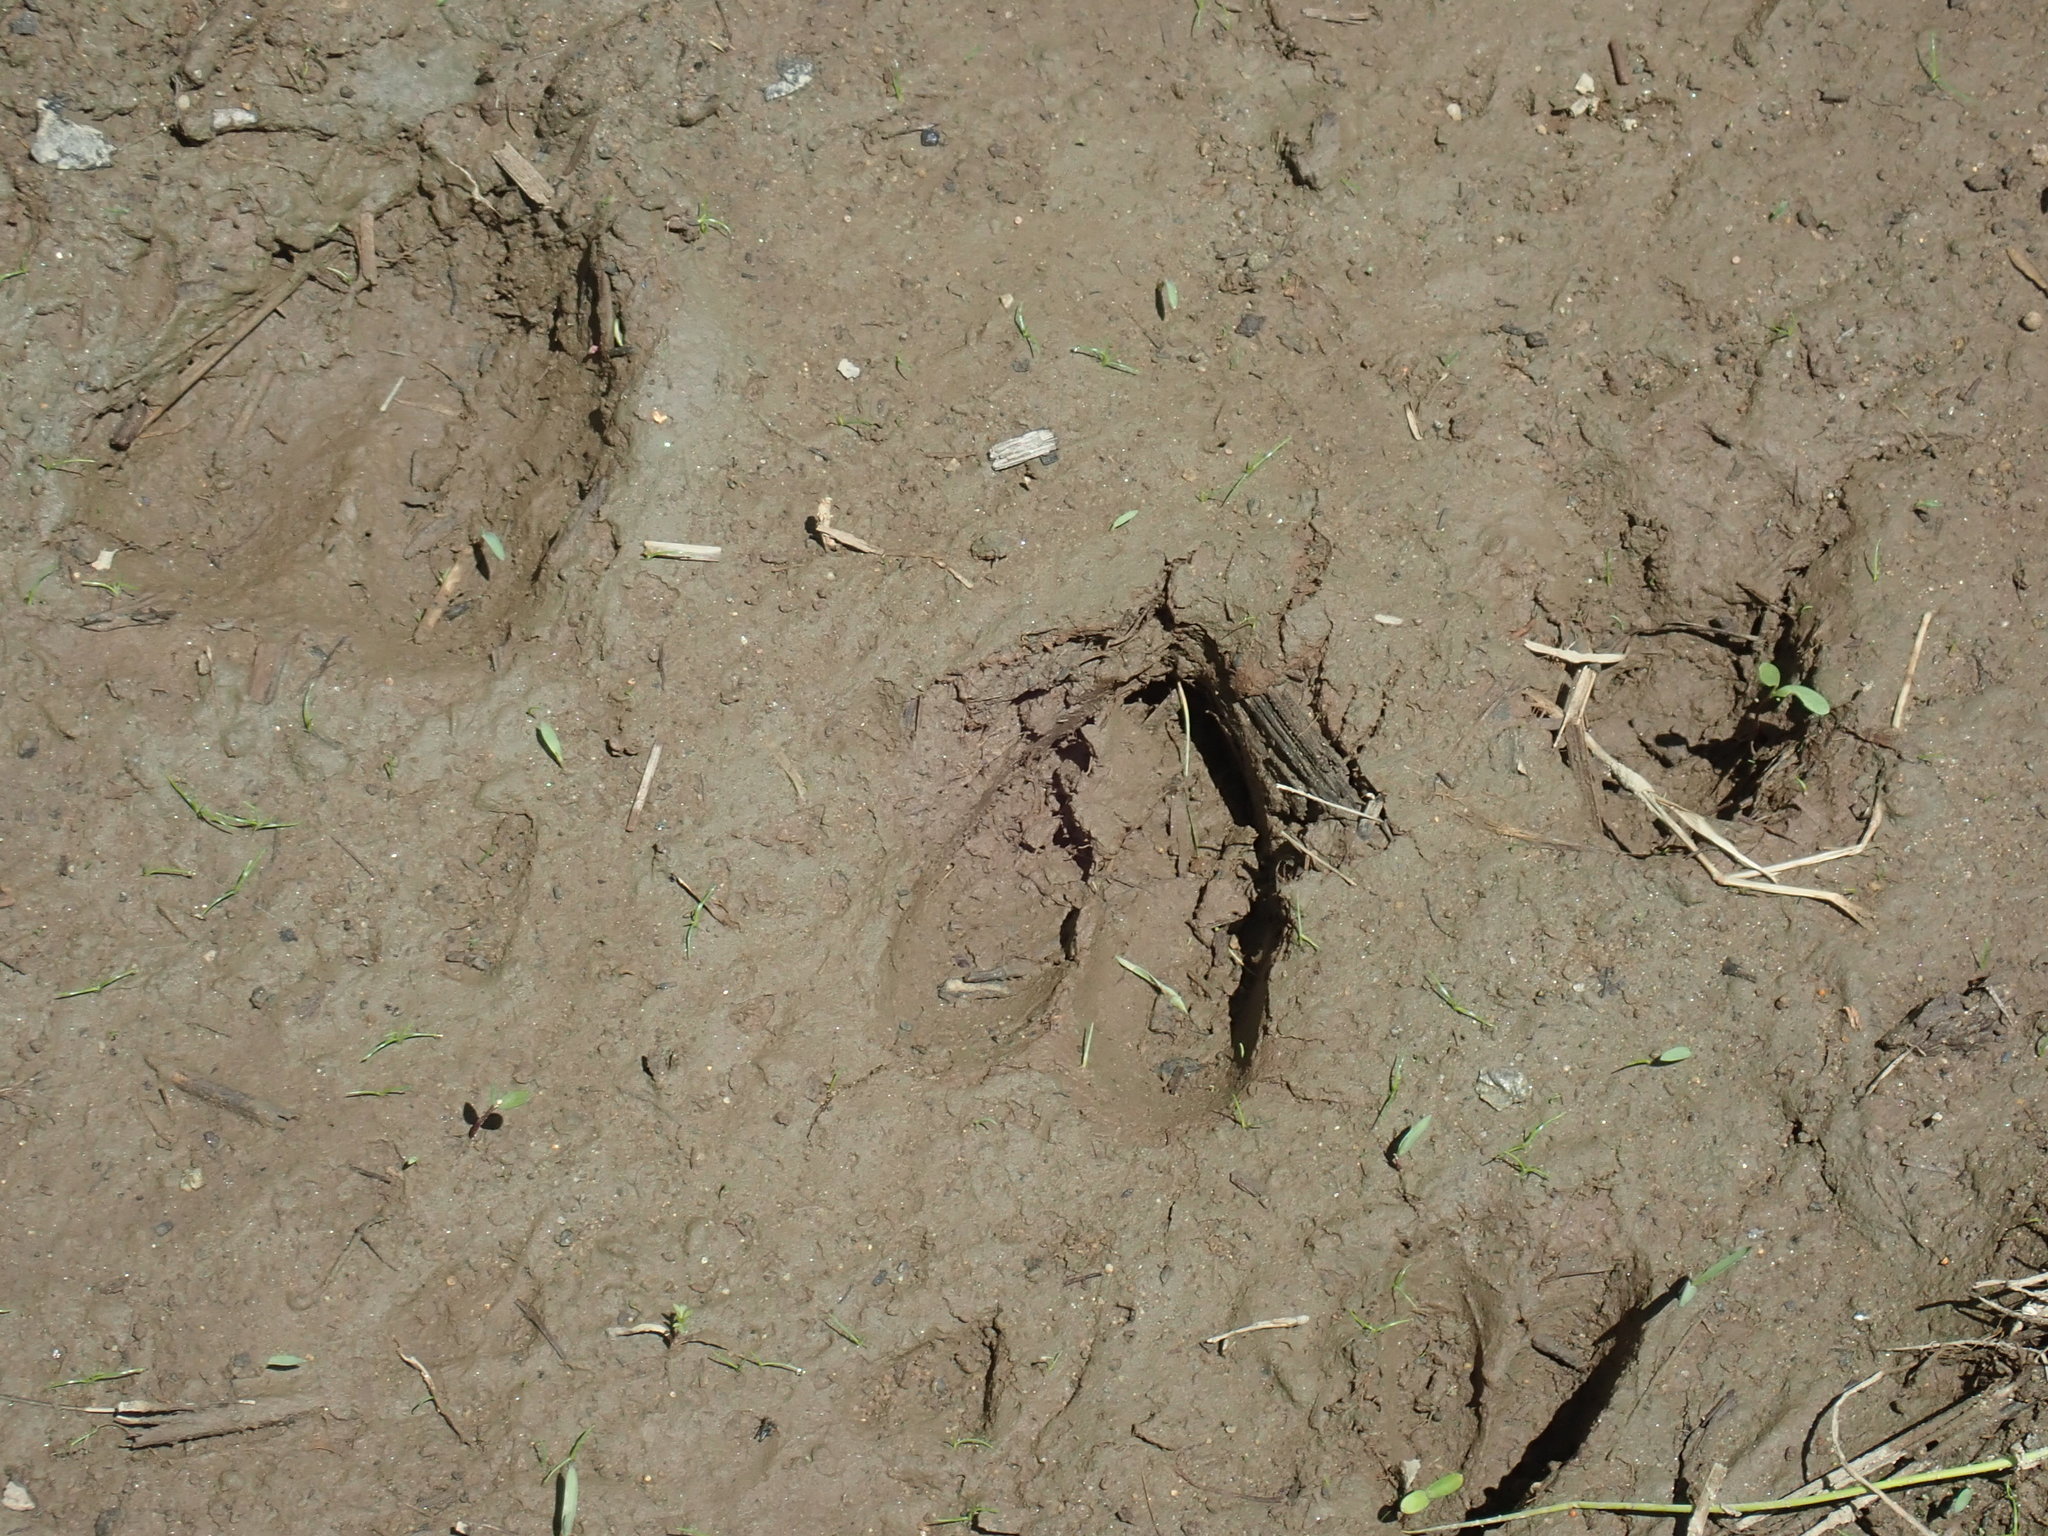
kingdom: Animalia
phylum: Chordata
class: Mammalia
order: Artiodactyla
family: Cervidae
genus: Odocoileus
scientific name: Odocoileus virginianus
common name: White-tailed deer
